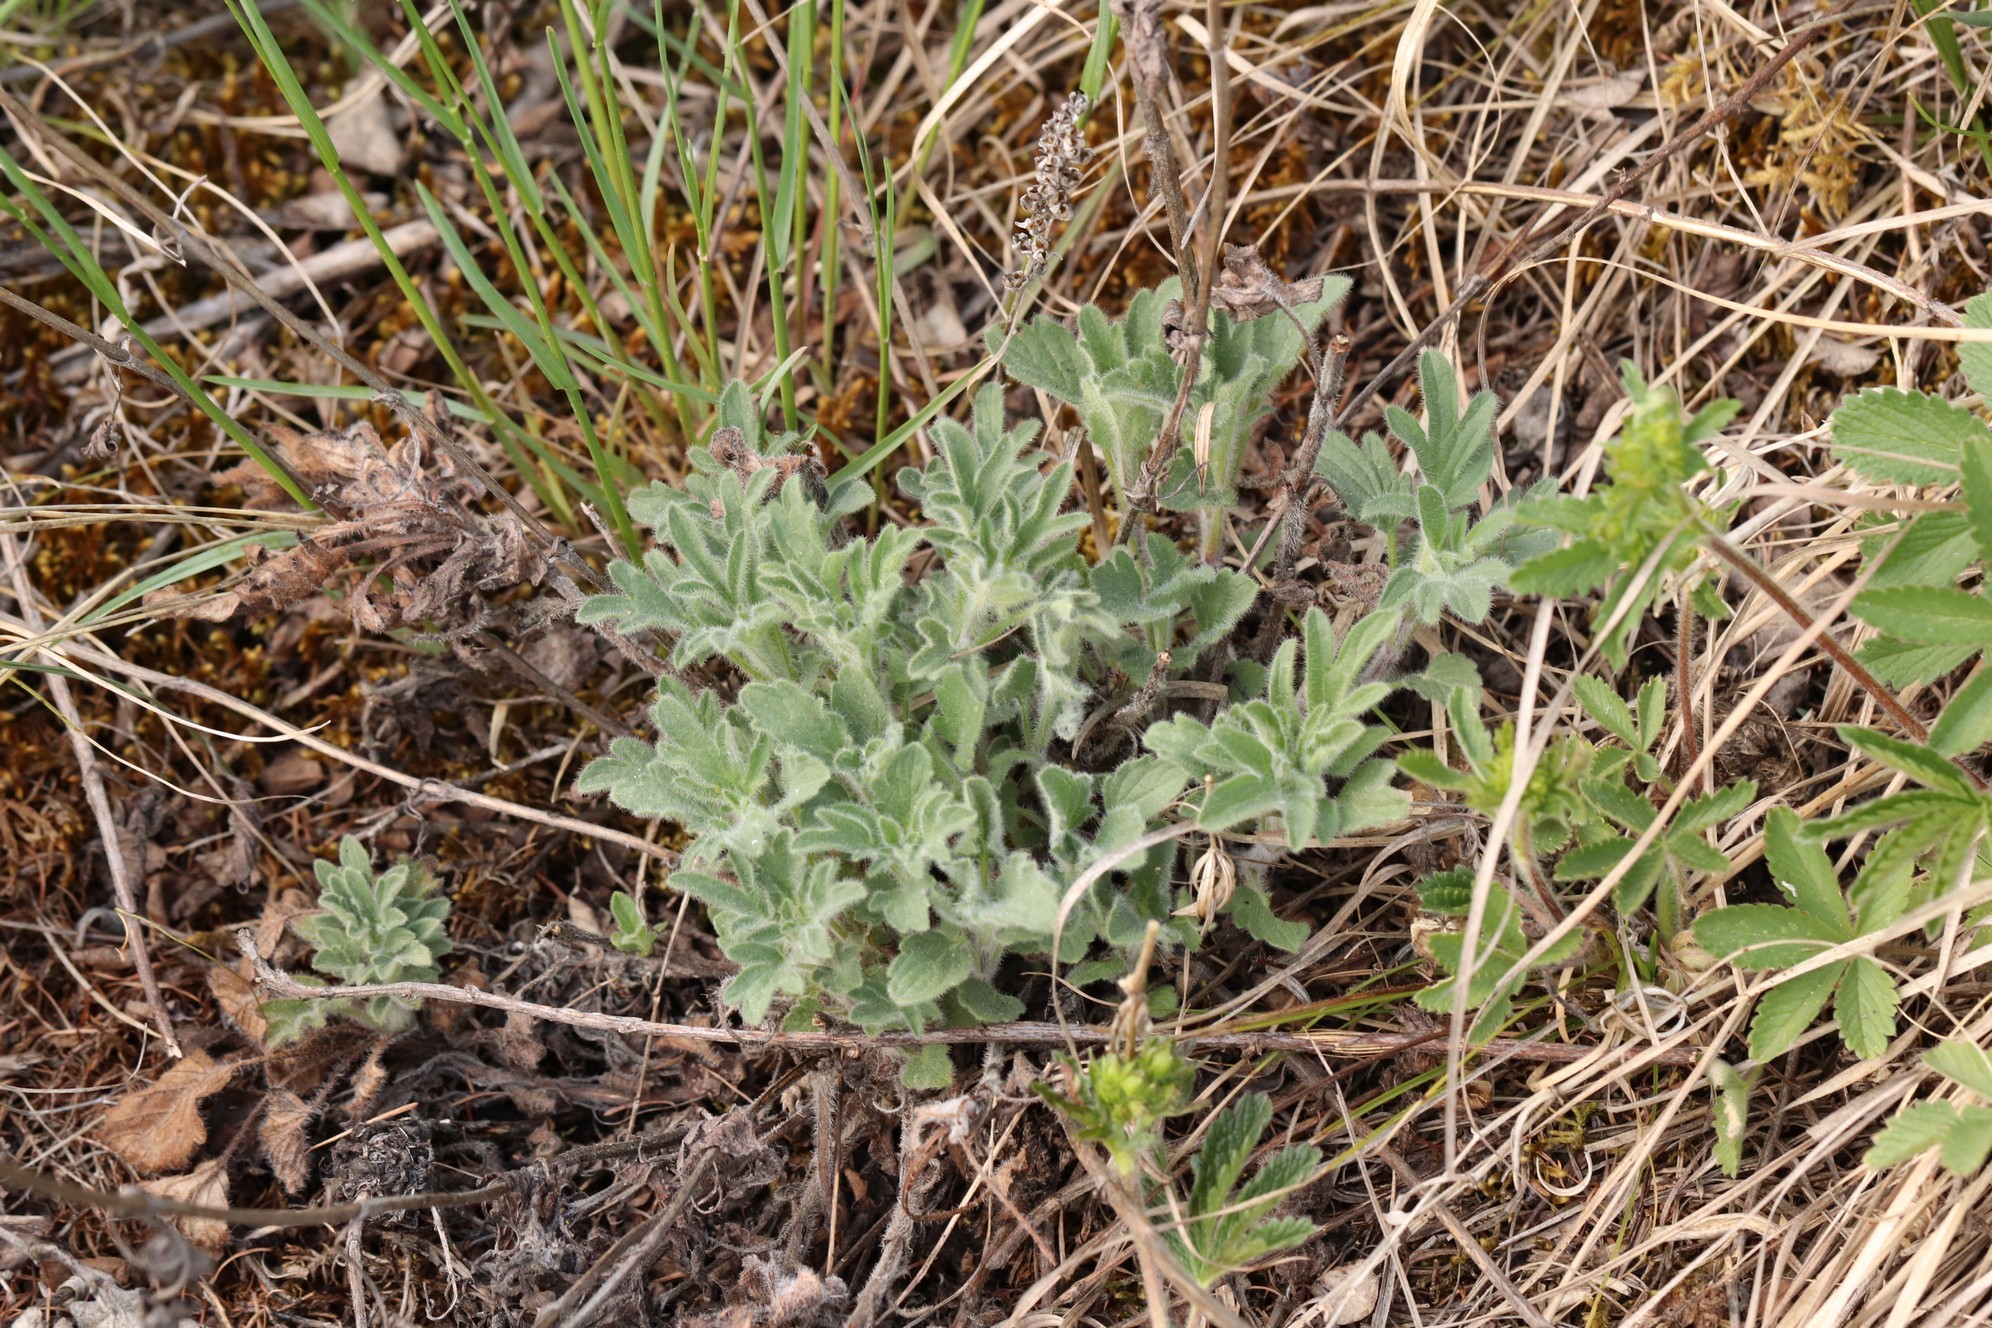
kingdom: Plantae
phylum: Tracheophyta
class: Magnoliopsida
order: Lamiales
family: Lamiaceae
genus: Nepeta
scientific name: Nepeta multifida
